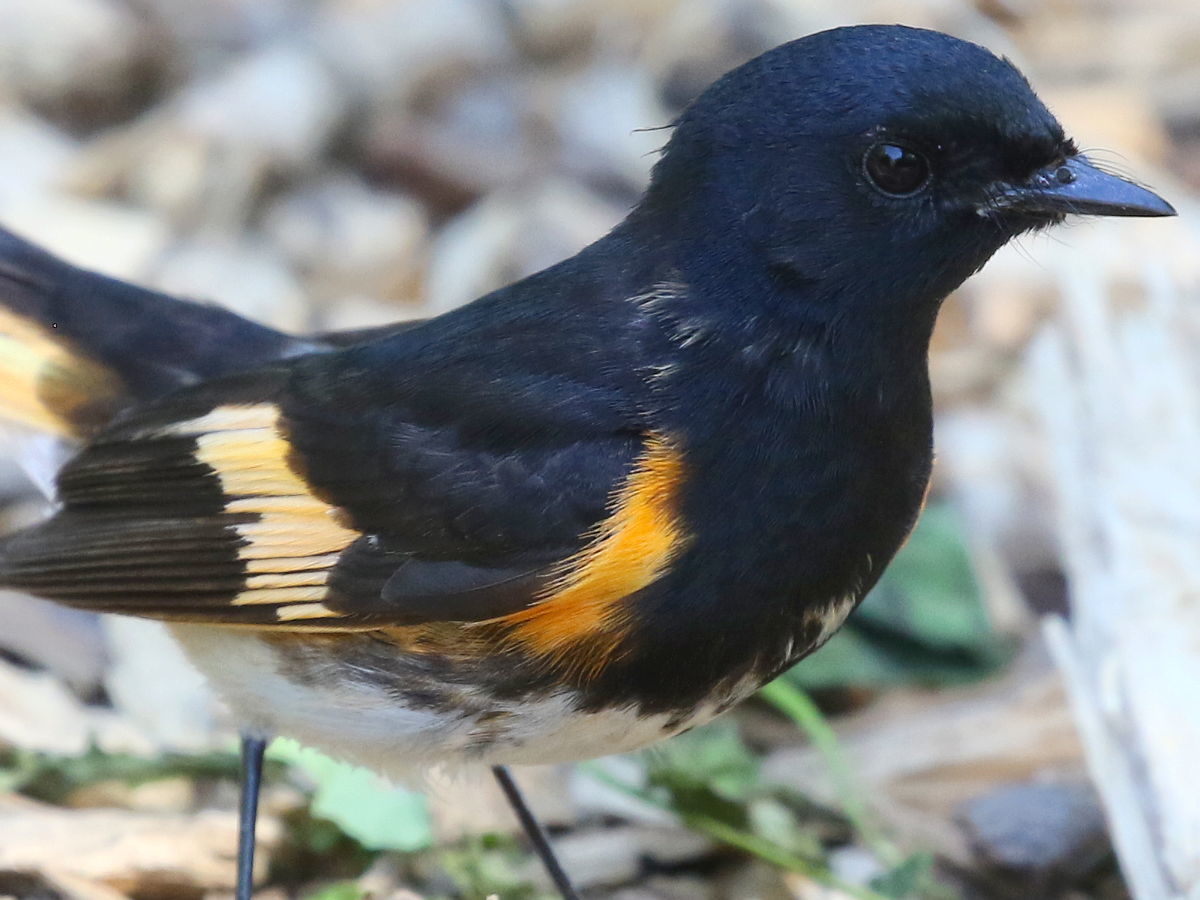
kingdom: Animalia
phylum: Chordata
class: Aves
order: Passeriformes
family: Parulidae
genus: Setophaga
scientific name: Setophaga ruticilla
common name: American redstart
